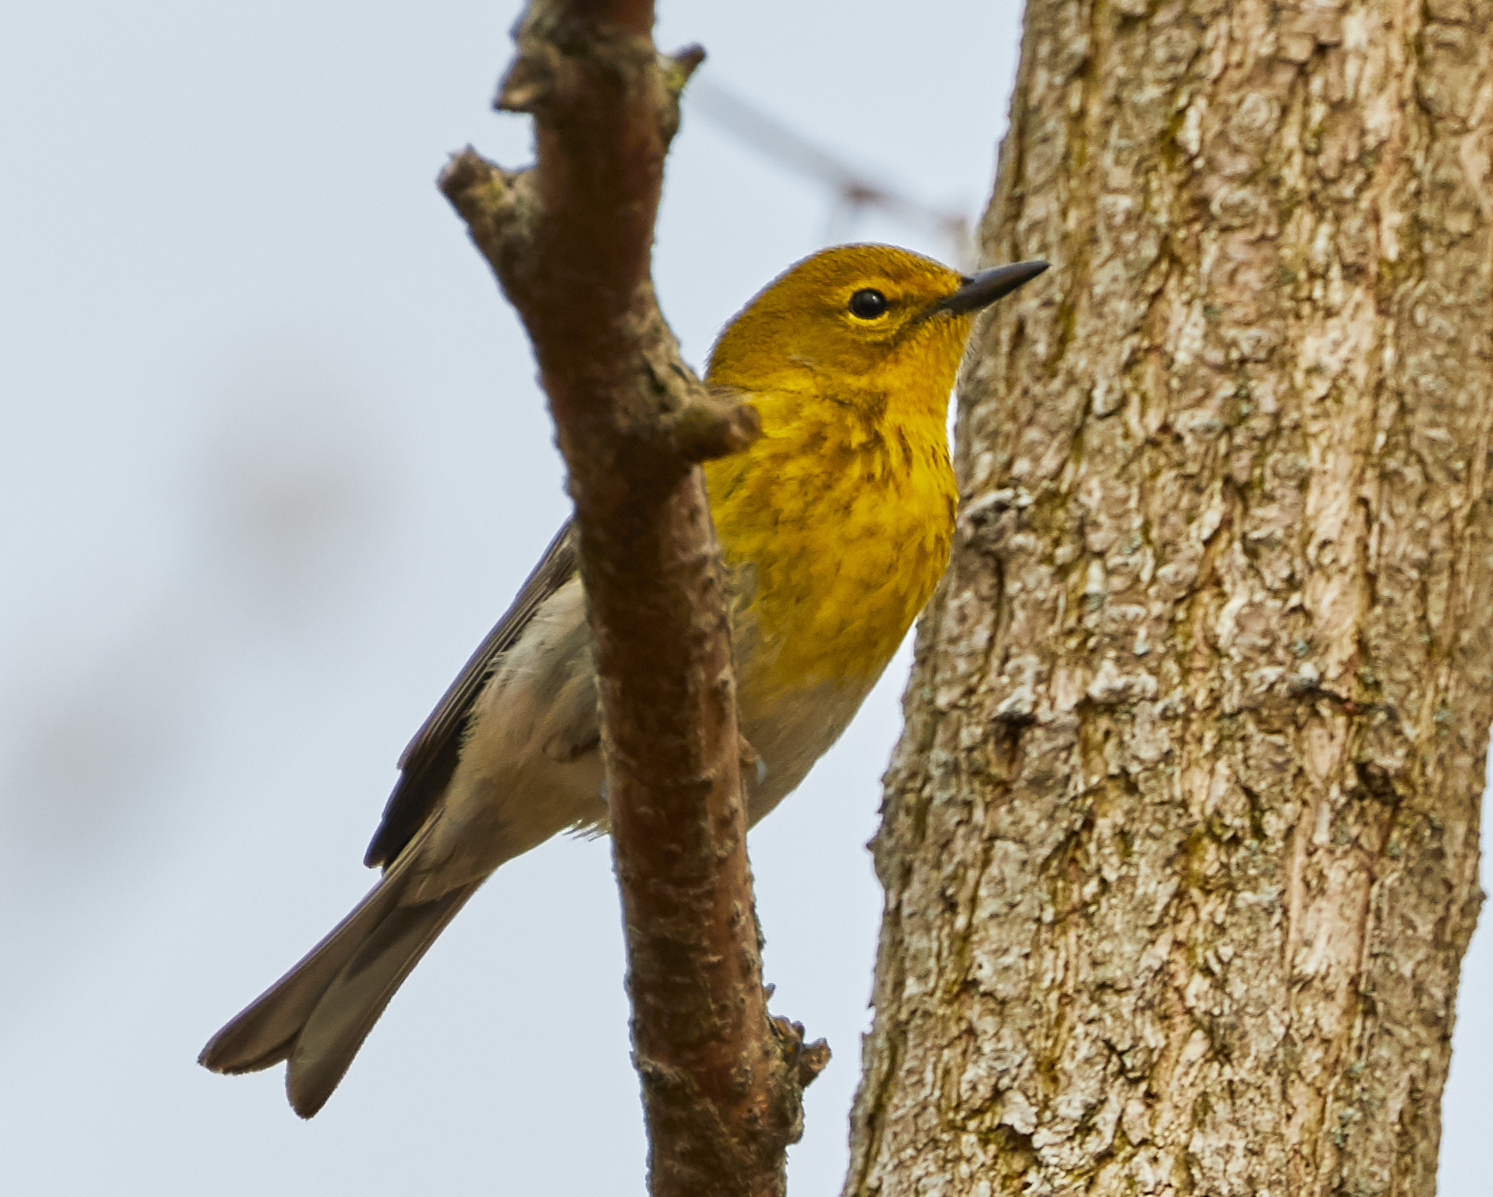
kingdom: Animalia
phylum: Chordata
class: Aves
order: Passeriformes
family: Parulidae
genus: Setophaga
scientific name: Setophaga pinus
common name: Pine warbler
